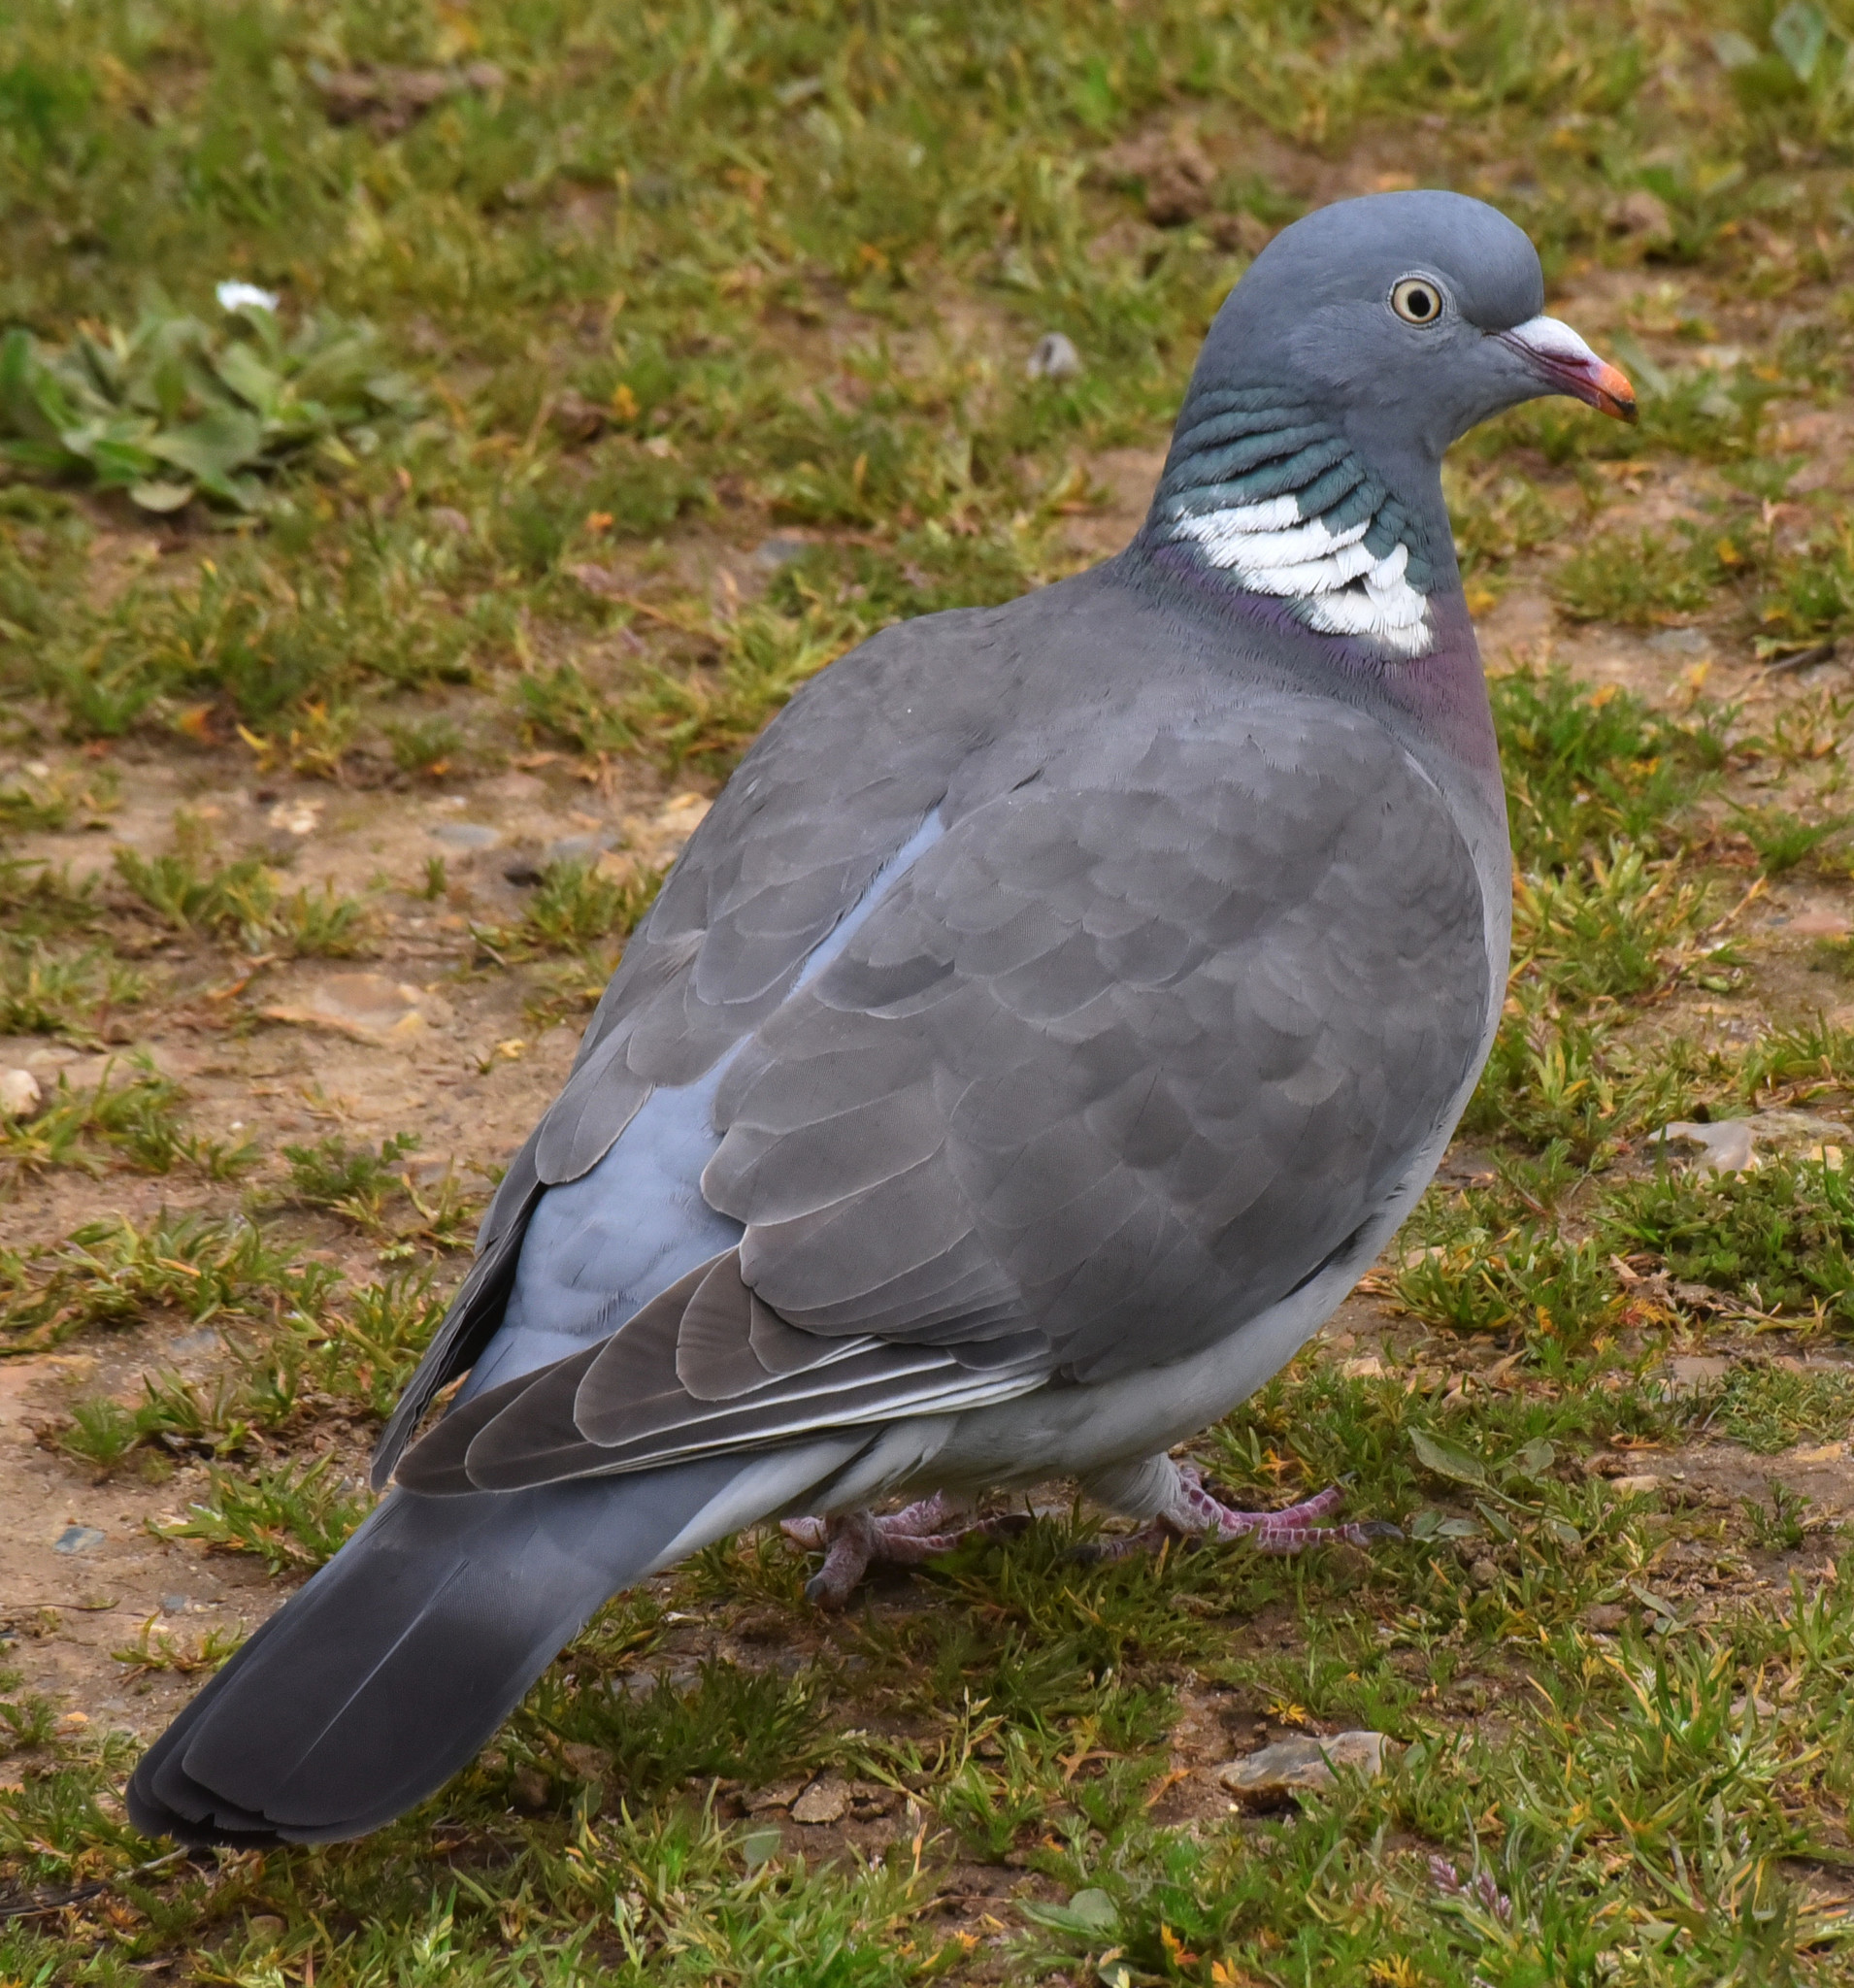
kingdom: Animalia
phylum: Chordata
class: Aves
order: Columbiformes
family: Columbidae
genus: Columba
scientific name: Columba palumbus
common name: Common wood pigeon
